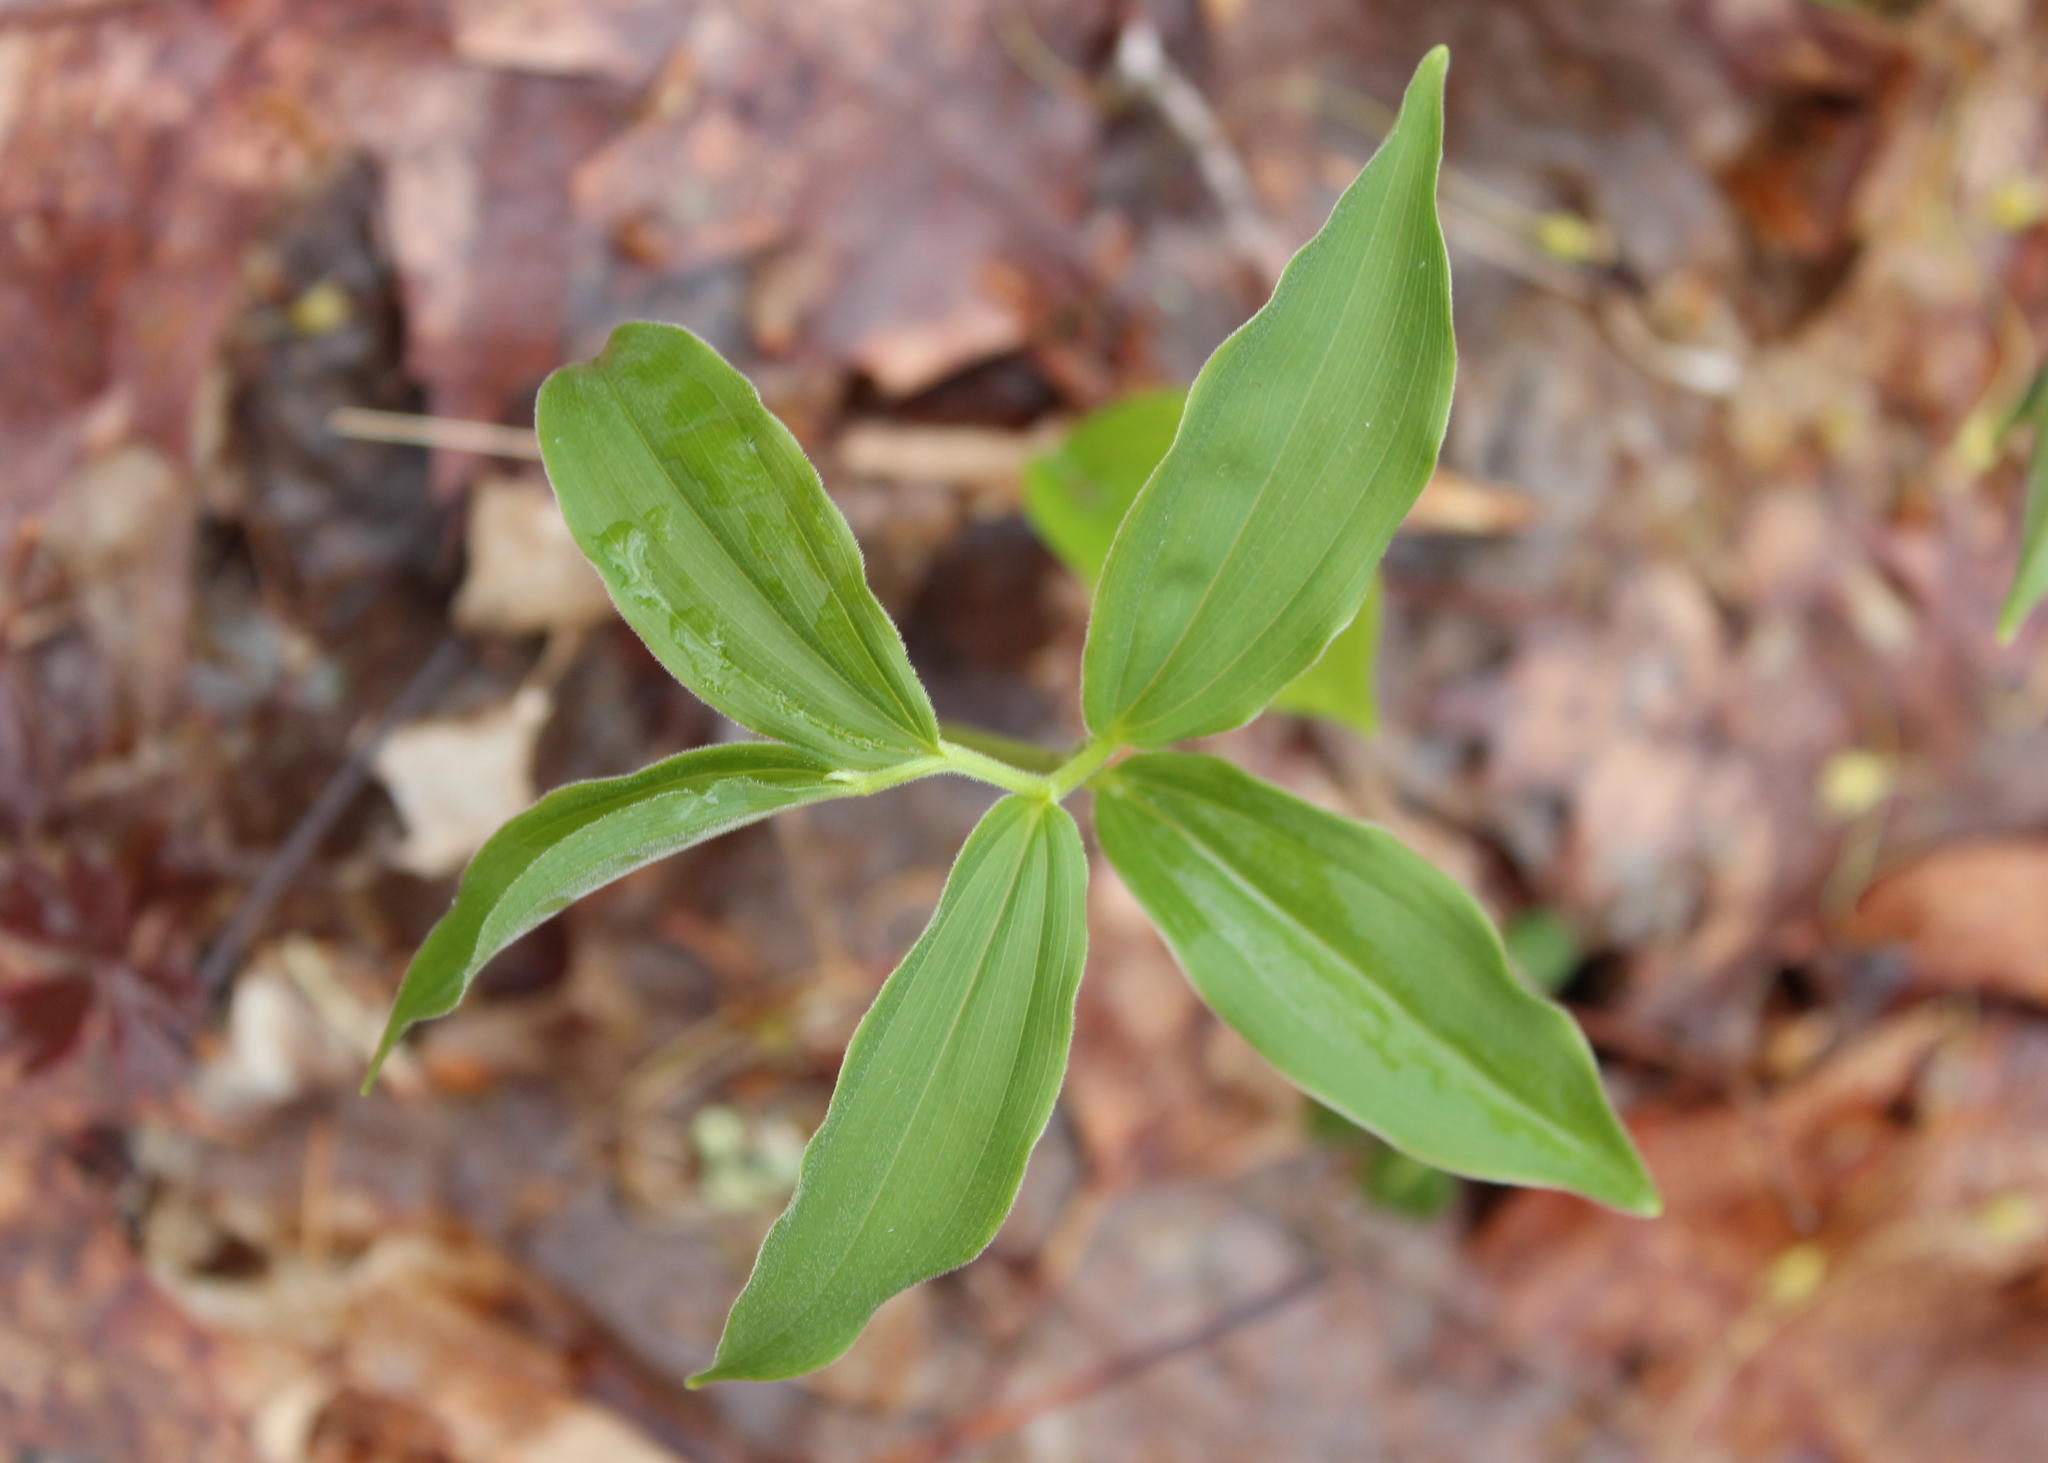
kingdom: Plantae
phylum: Tracheophyta
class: Liliopsida
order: Asparagales
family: Asparagaceae
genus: Maianthemum
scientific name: Maianthemum racemosum
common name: False spikenard
